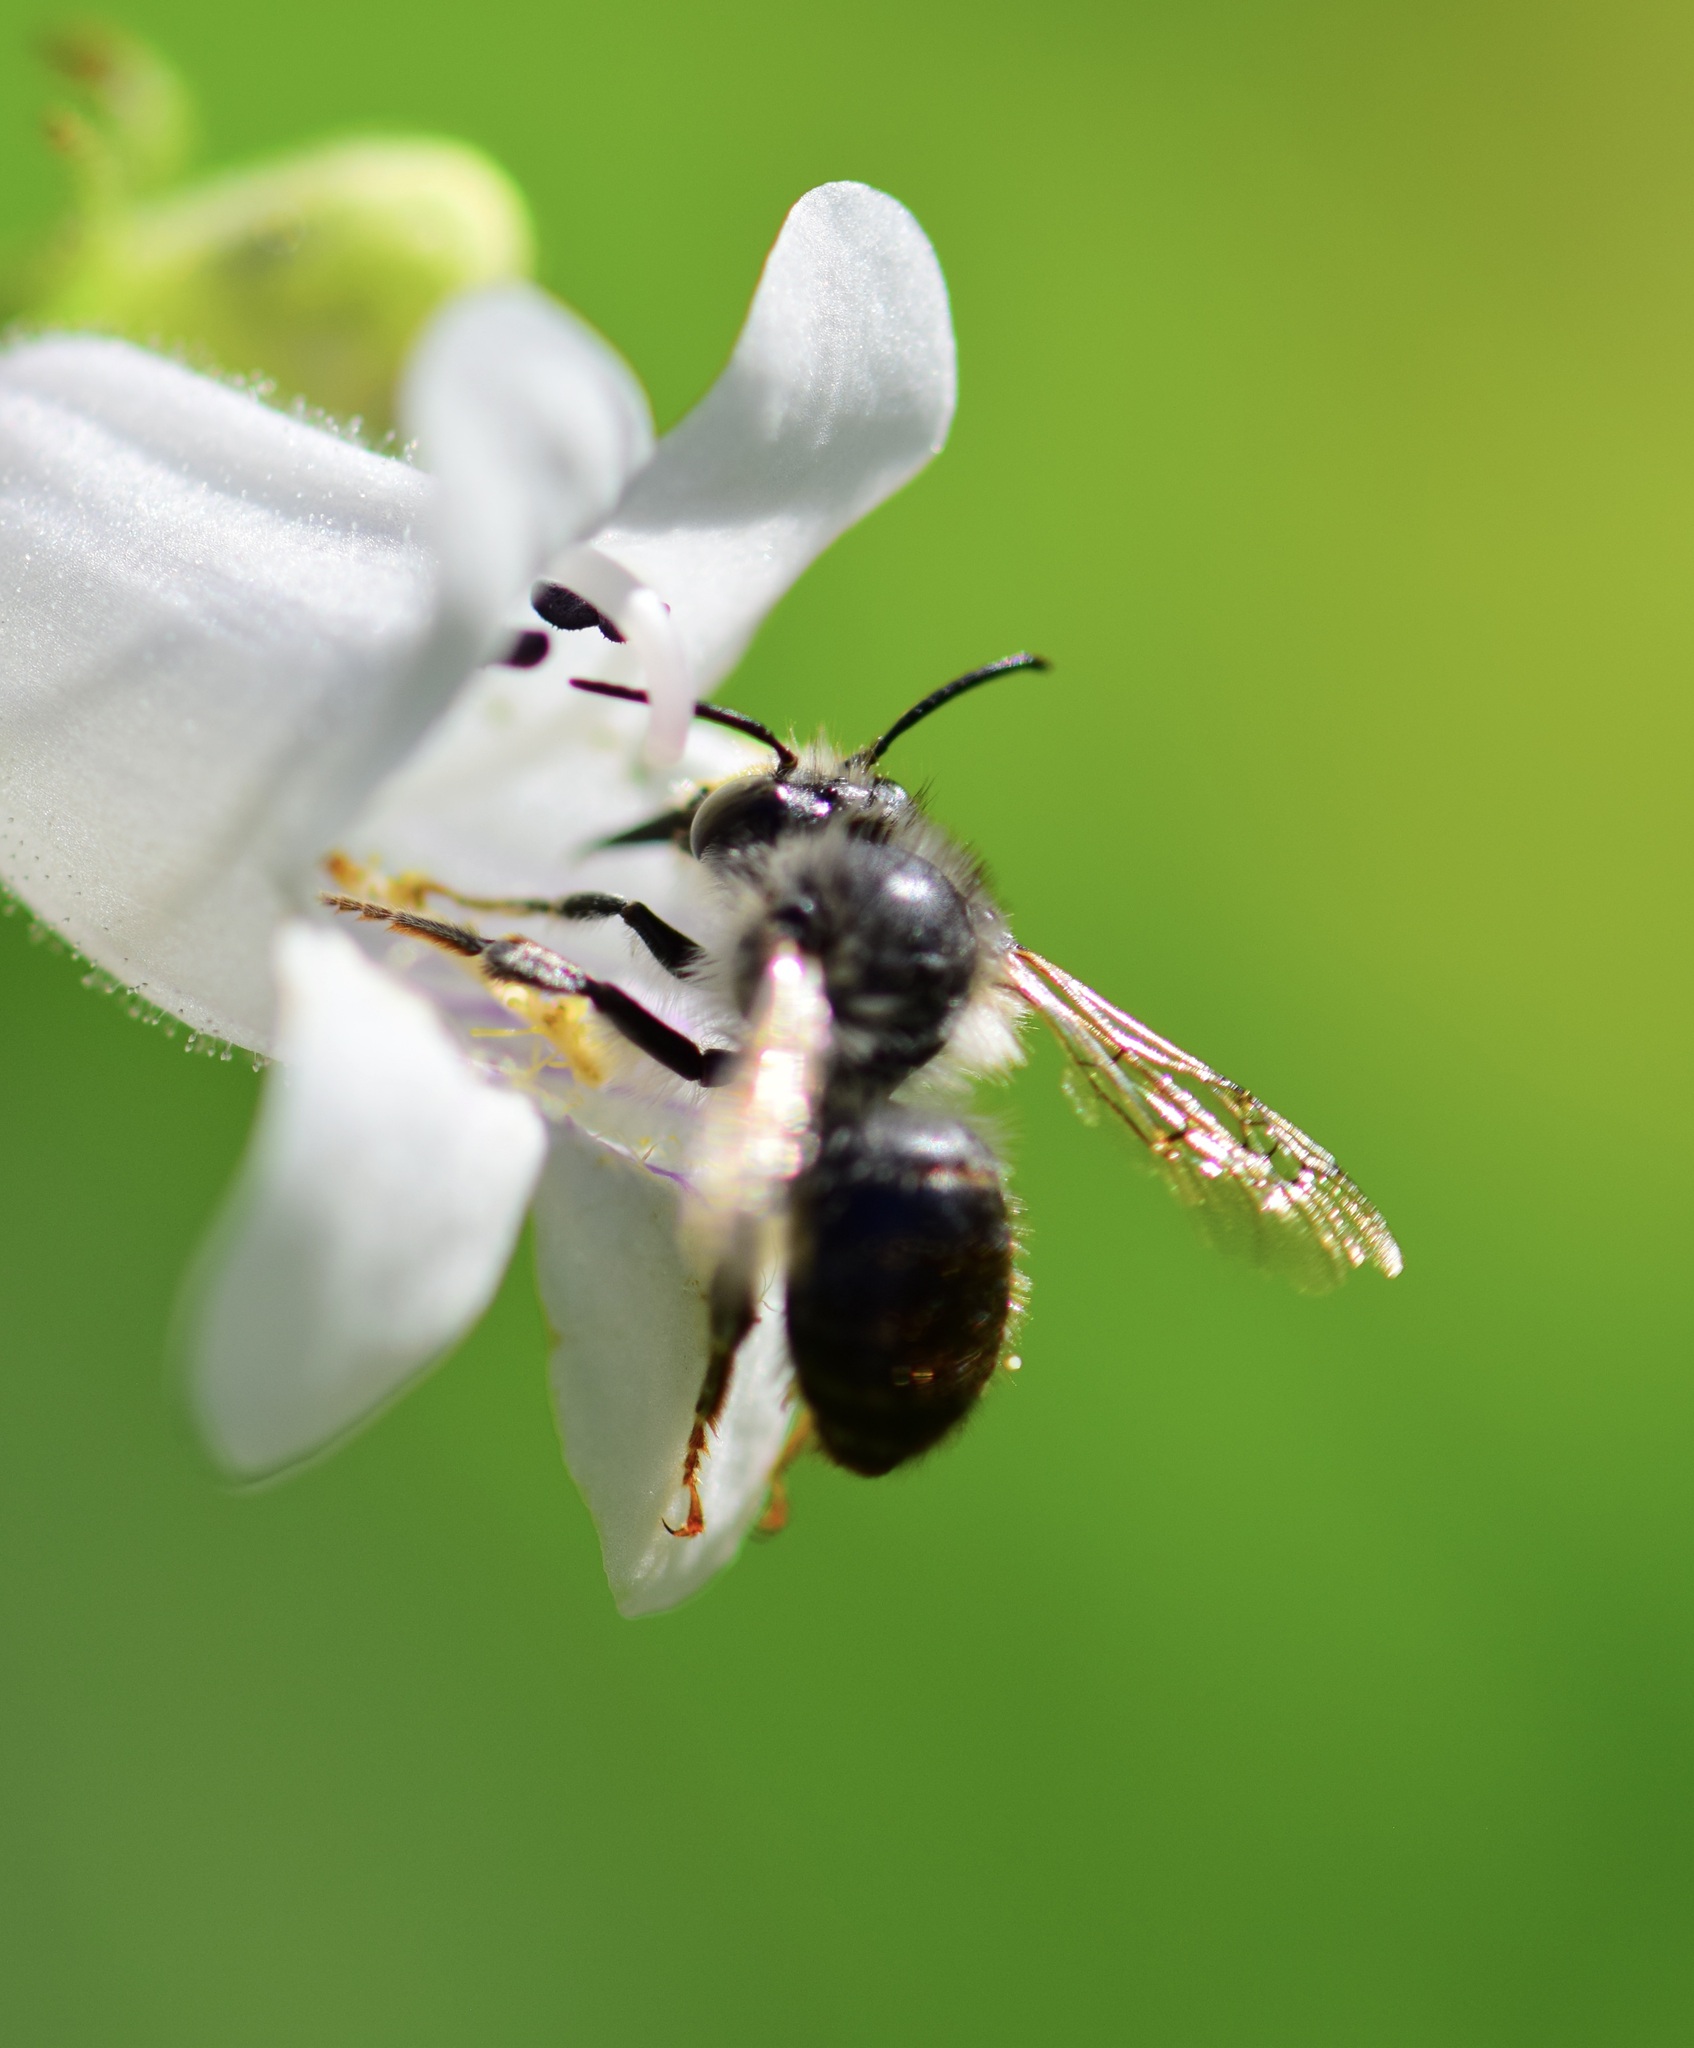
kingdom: Animalia
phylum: Arthropoda
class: Insecta
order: Hymenoptera
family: Apidae
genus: Anthophora
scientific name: Anthophora terminalis
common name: Orange-tipped wood-digger bee
